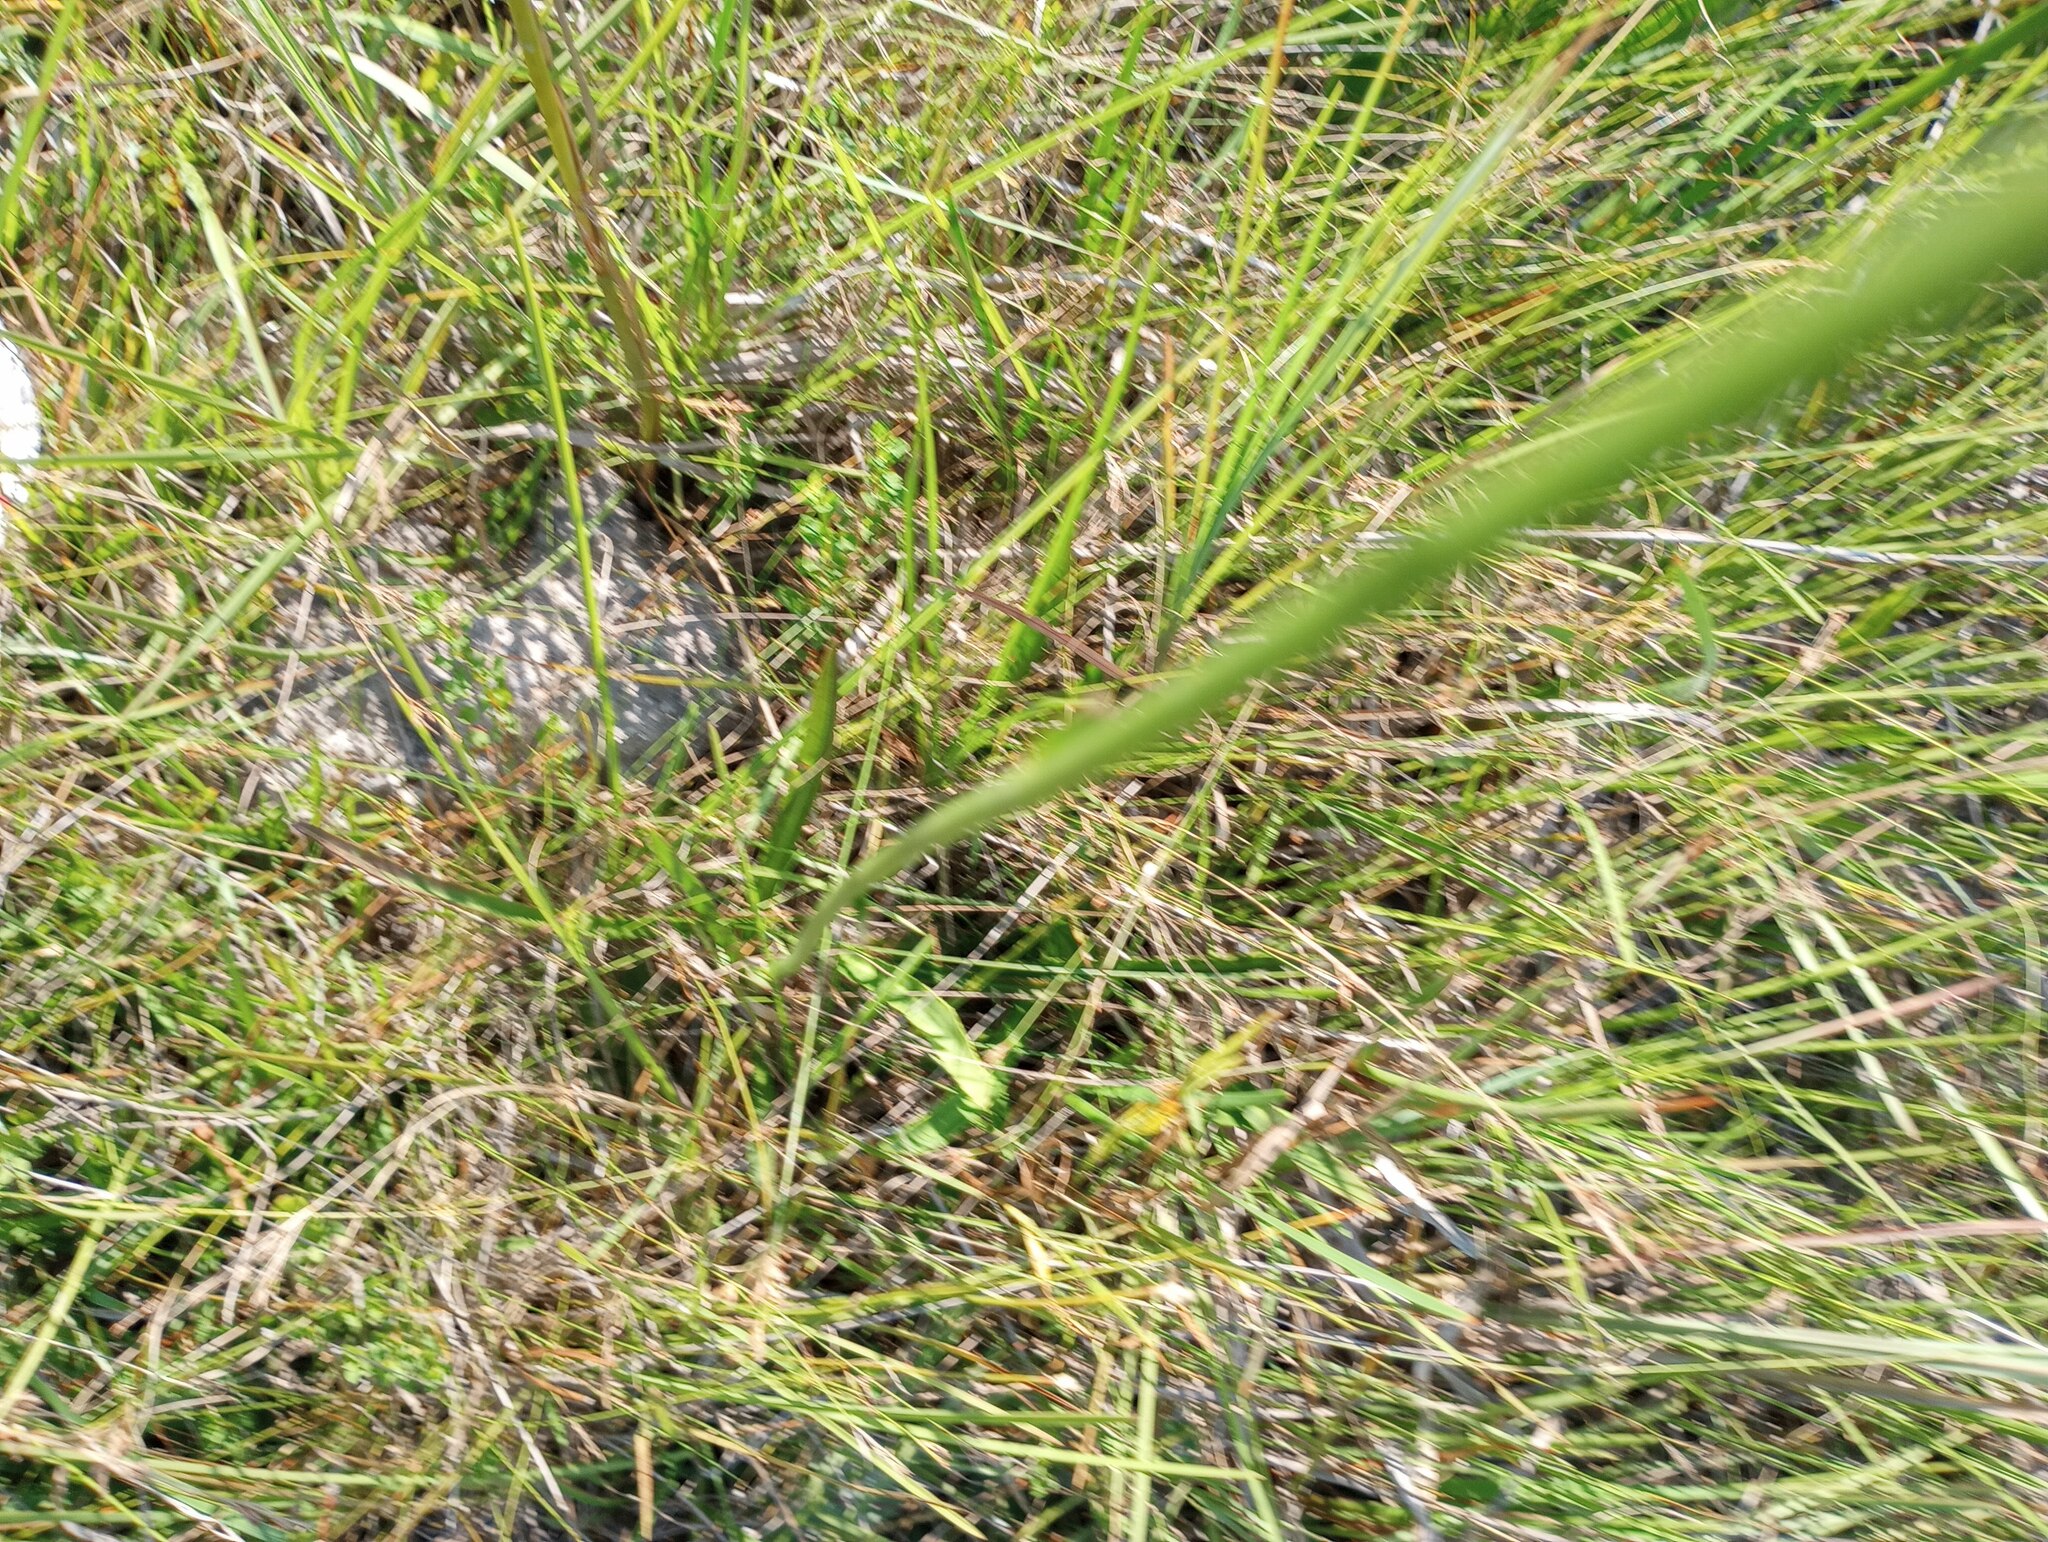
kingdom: Plantae
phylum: Tracheophyta
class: Magnoliopsida
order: Asterales
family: Campanulaceae
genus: Lobelia
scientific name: Lobelia floridana
